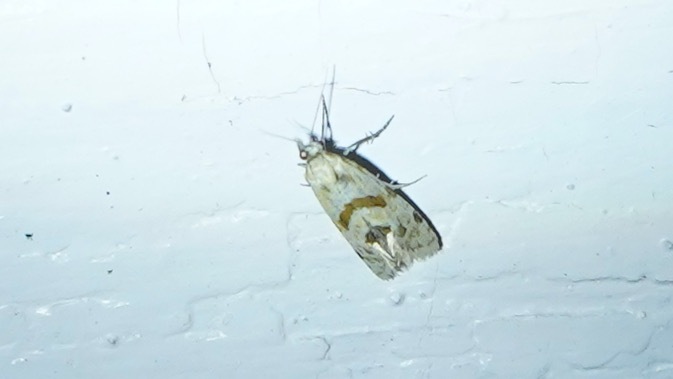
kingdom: Animalia
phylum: Arthropoda
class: Insecta
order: Lepidoptera
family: Tortricidae
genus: Aethes
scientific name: Aethes smeathmanniana
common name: Yarrow conch
